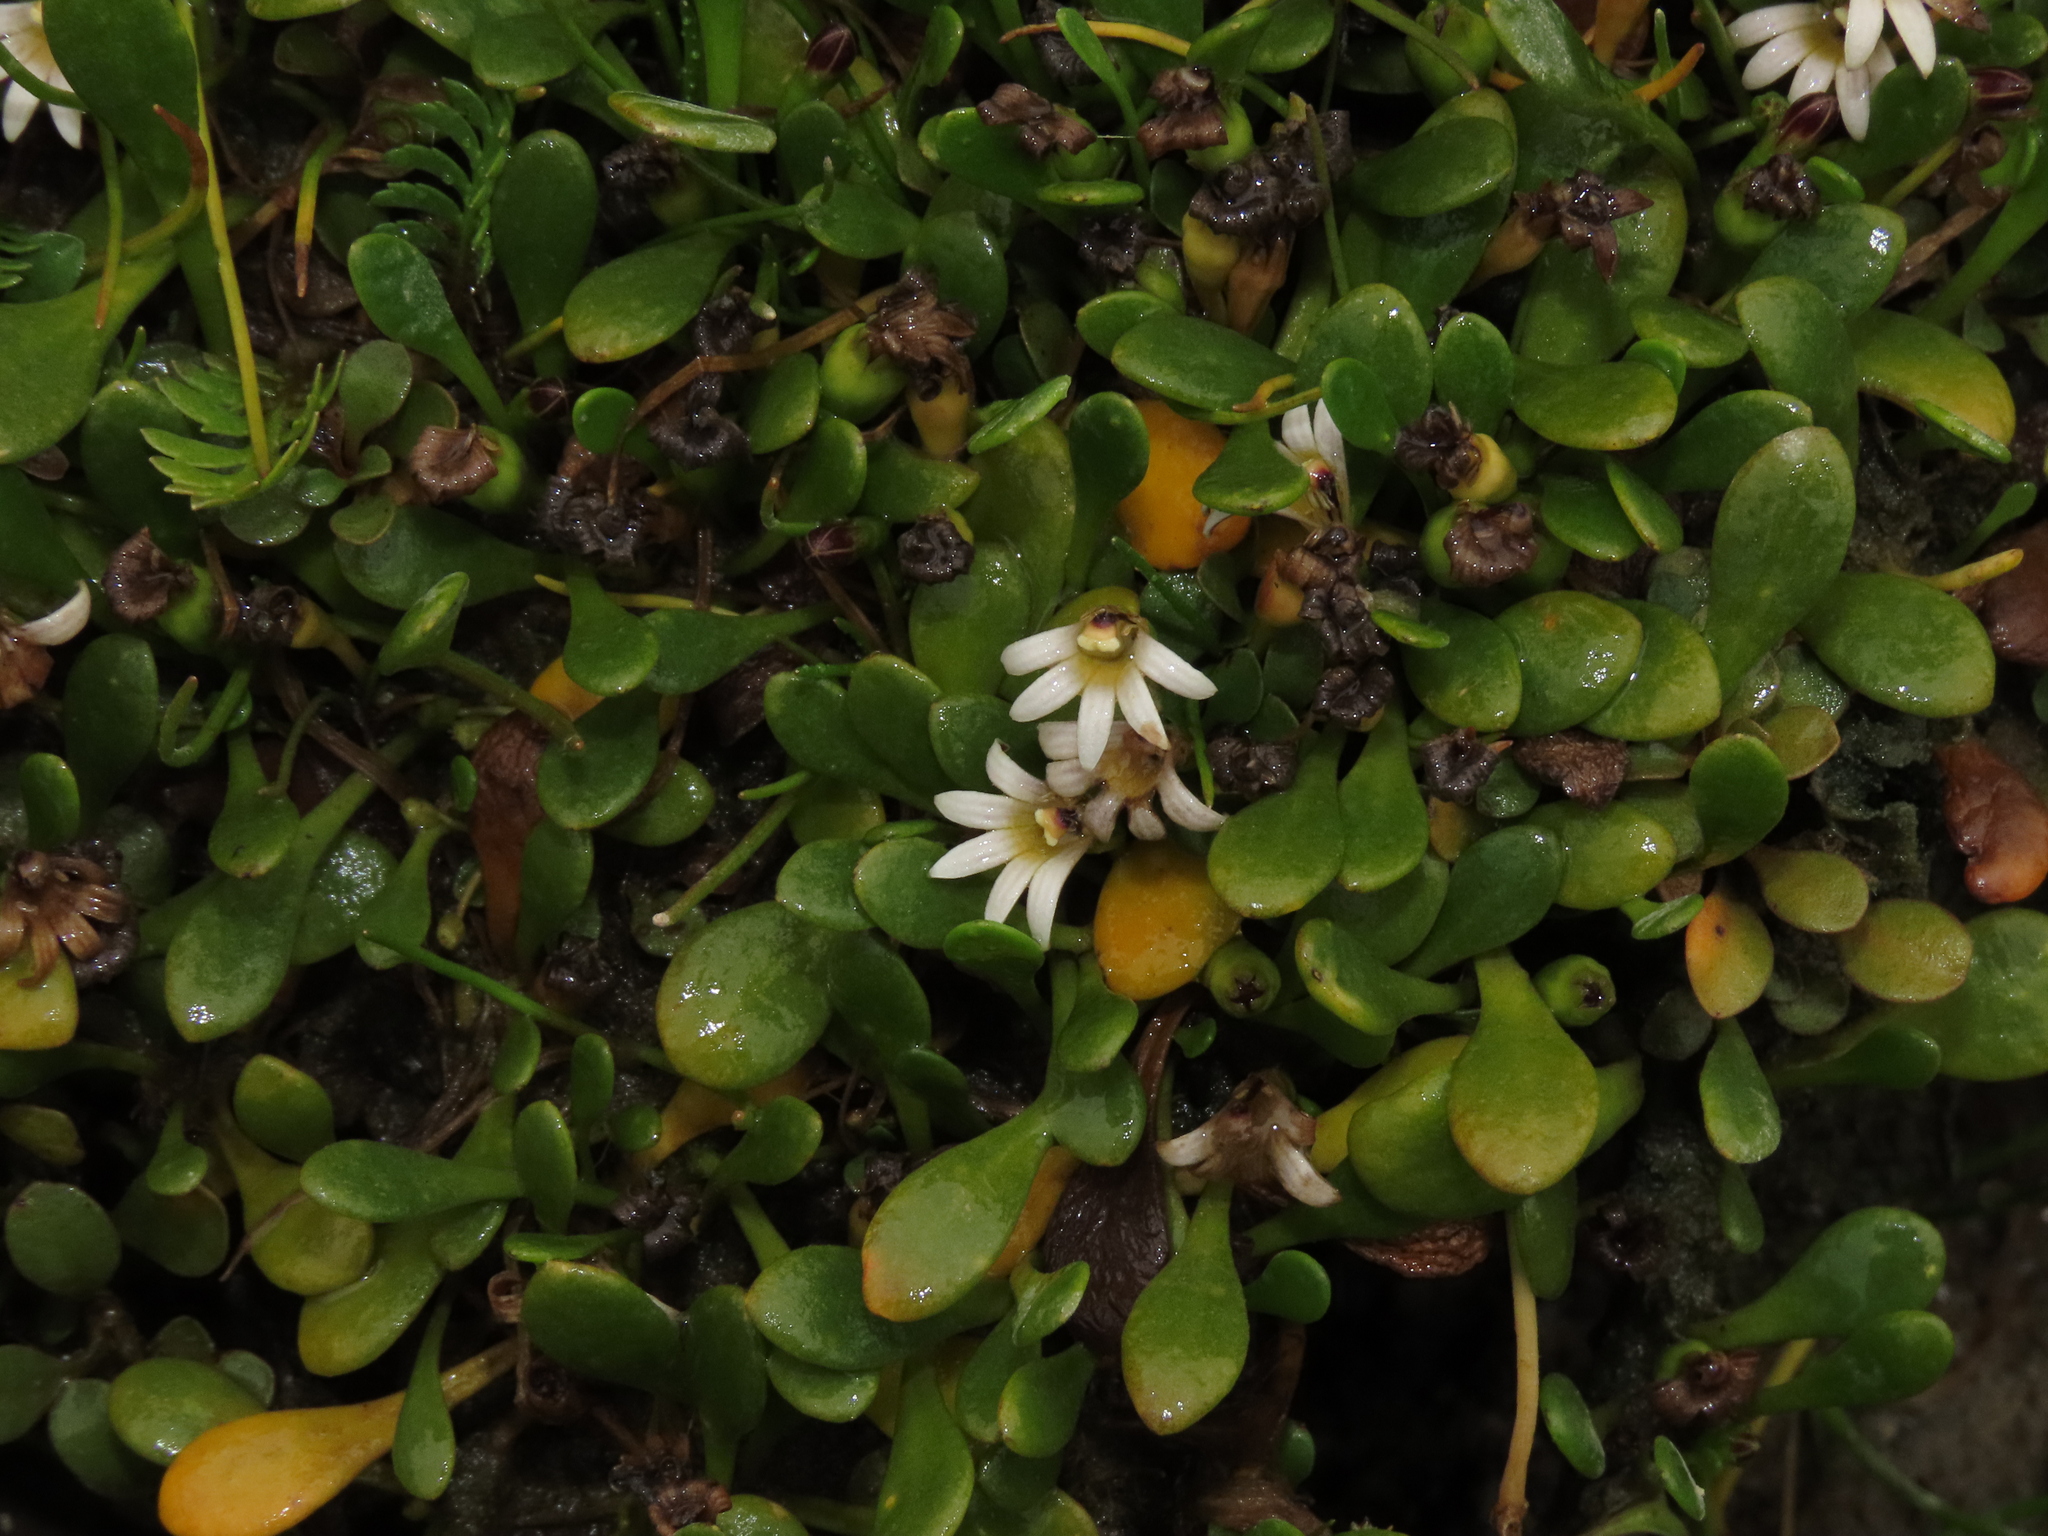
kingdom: Plantae
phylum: Tracheophyta
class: Magnoliopsida
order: Asterales
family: Goodeniaceae
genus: Goodenia
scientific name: Goodenia radicans
